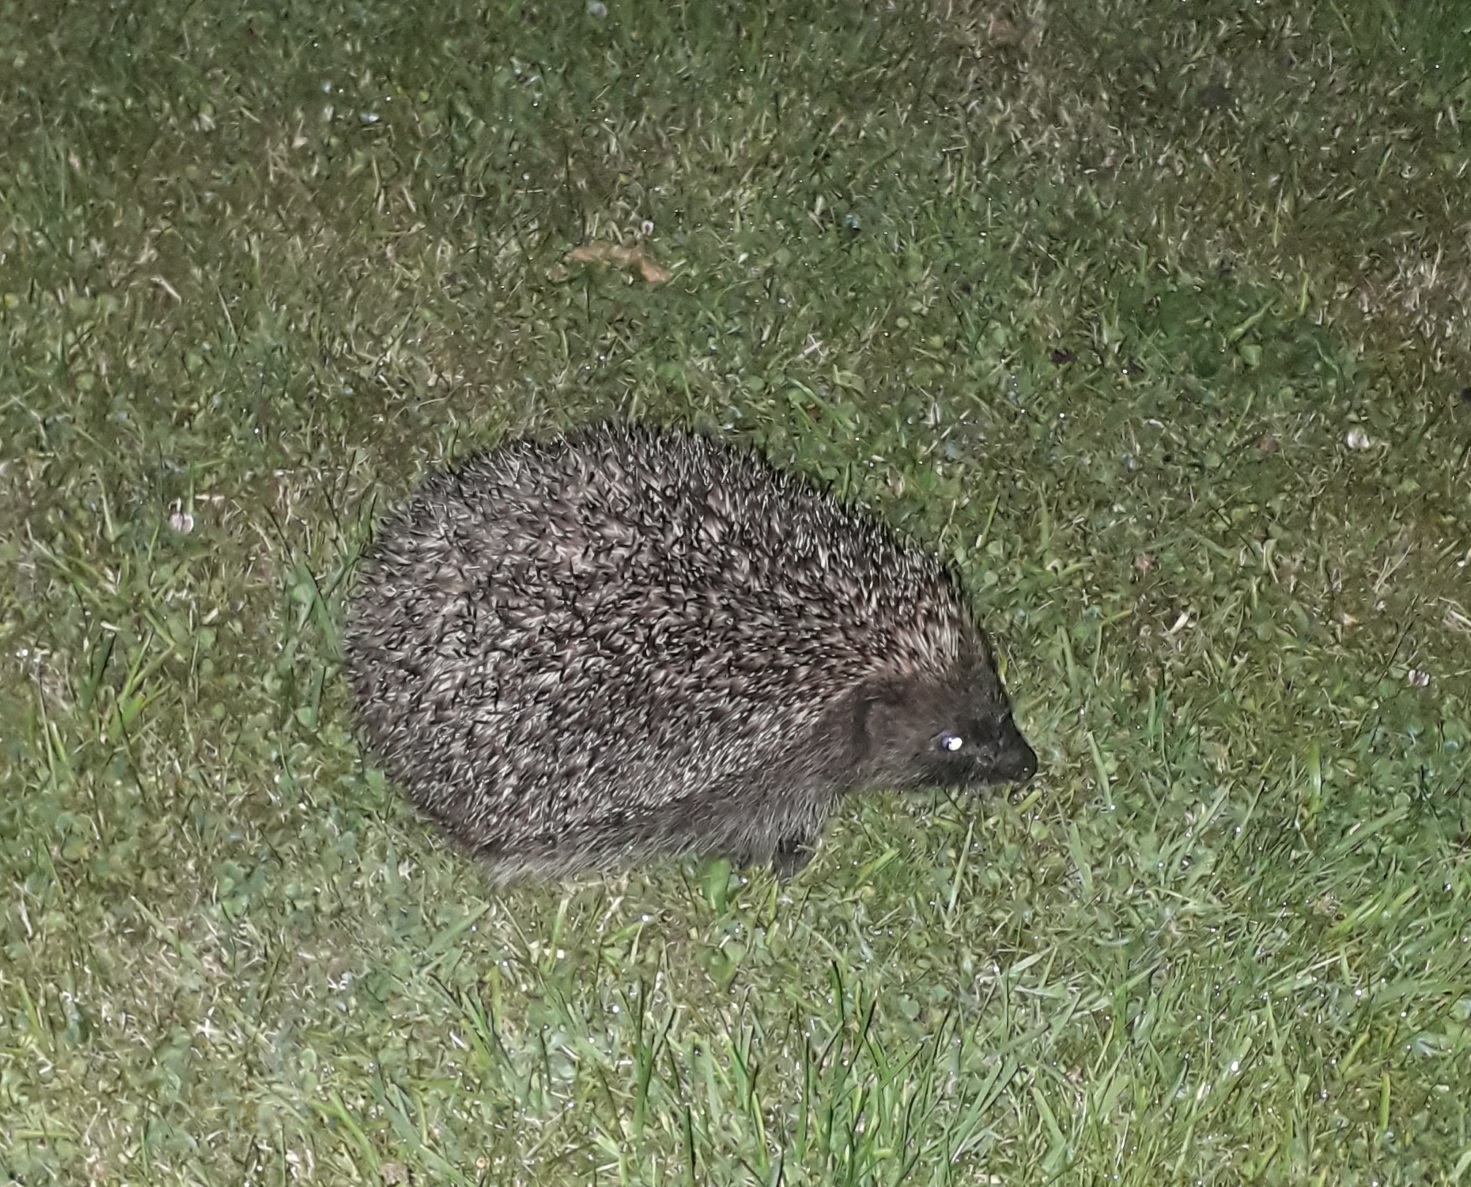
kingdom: Animalia
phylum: Chordata
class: Mammalia
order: Erinaceomorpha
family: Erinaceidae
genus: Erinaceus
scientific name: Erinaceus europaeus
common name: West european hedgehog
